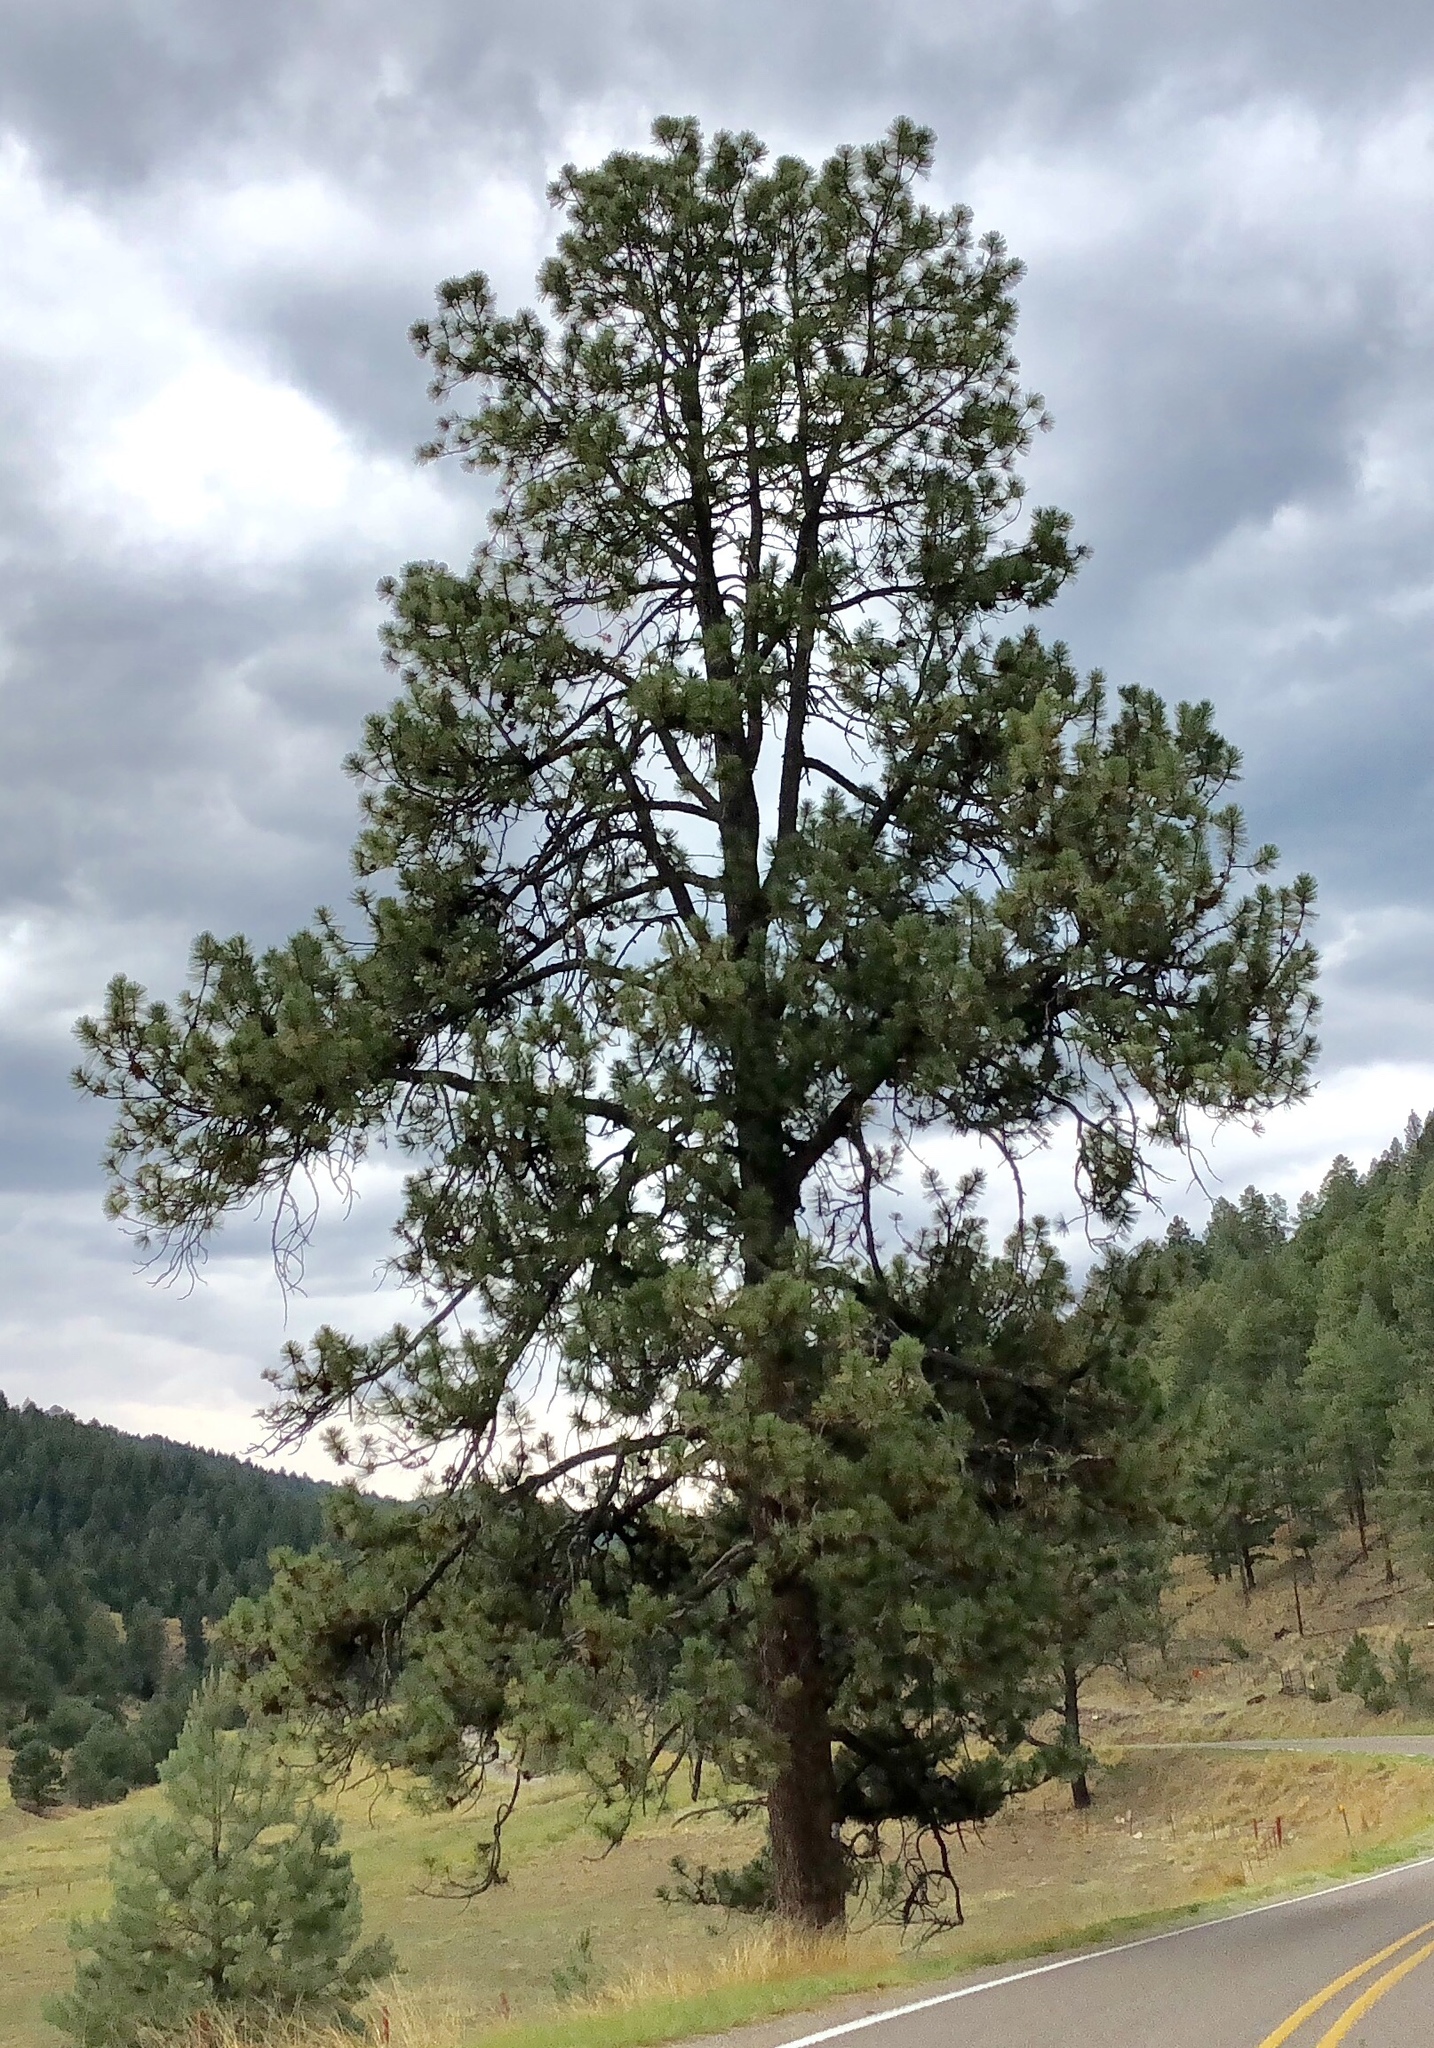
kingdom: Plantae
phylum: Tracheophyta
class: Pinopsida
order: Pinales
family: Pinaceae
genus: Pinus
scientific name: Pinus ponderosa
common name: Western yellow-pine
